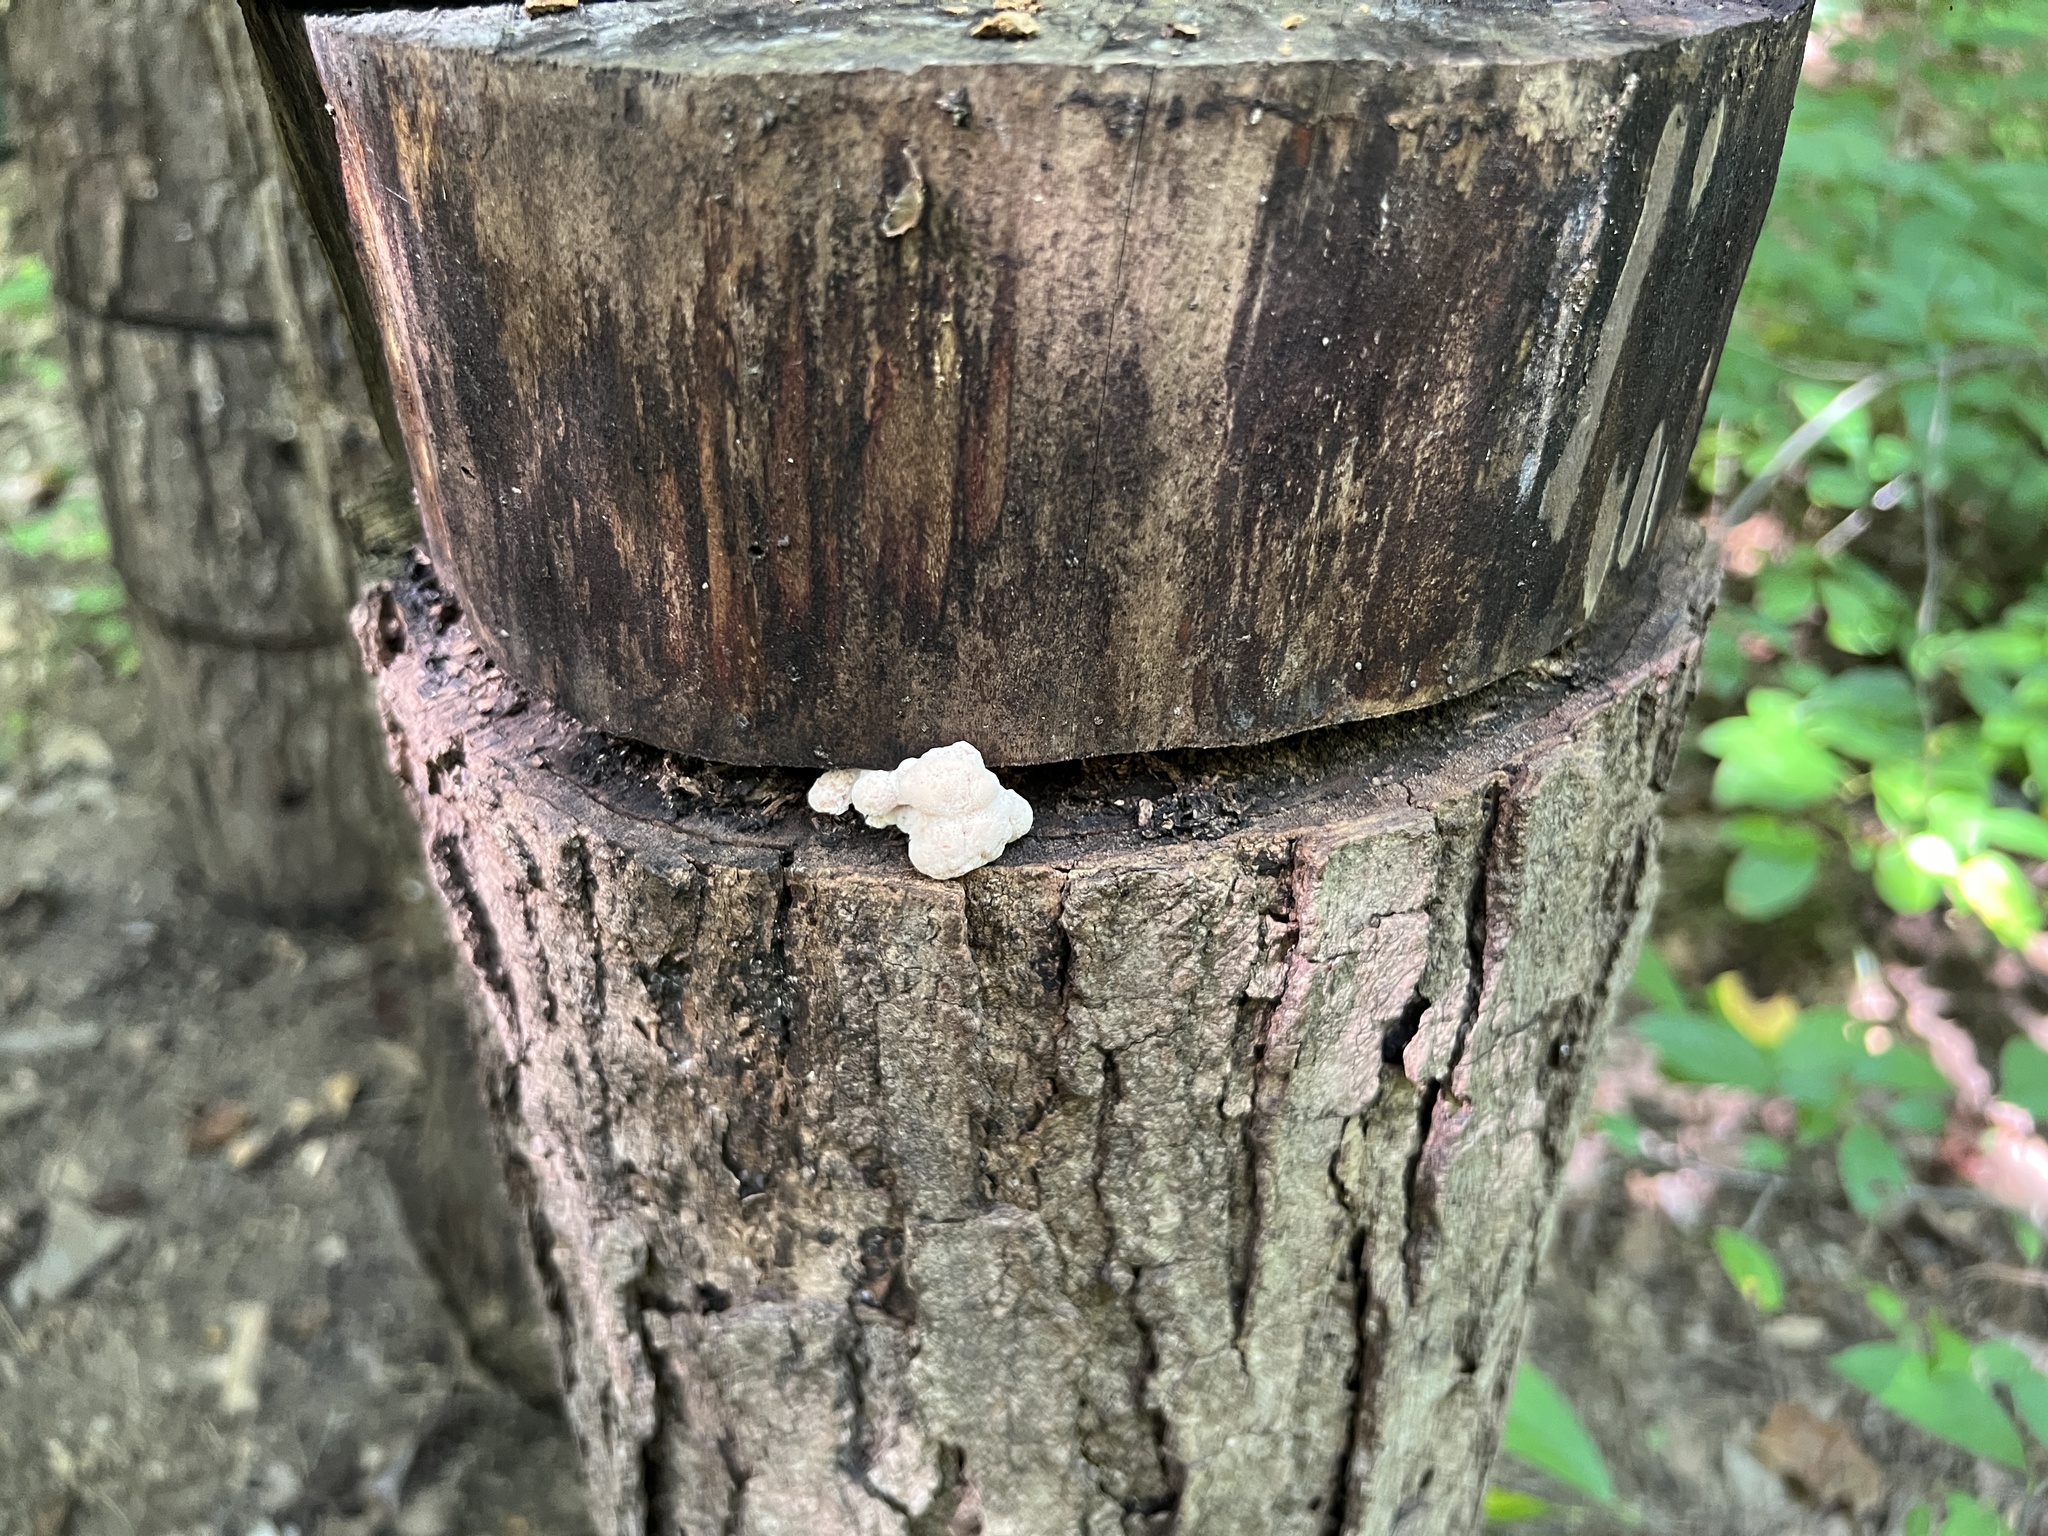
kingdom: Fungi
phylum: Basidiomycota
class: Agaricomycetes
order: Russulales
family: Hericiaceae
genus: Hericium
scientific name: Hericium erinaceus
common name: Bearded tooth
